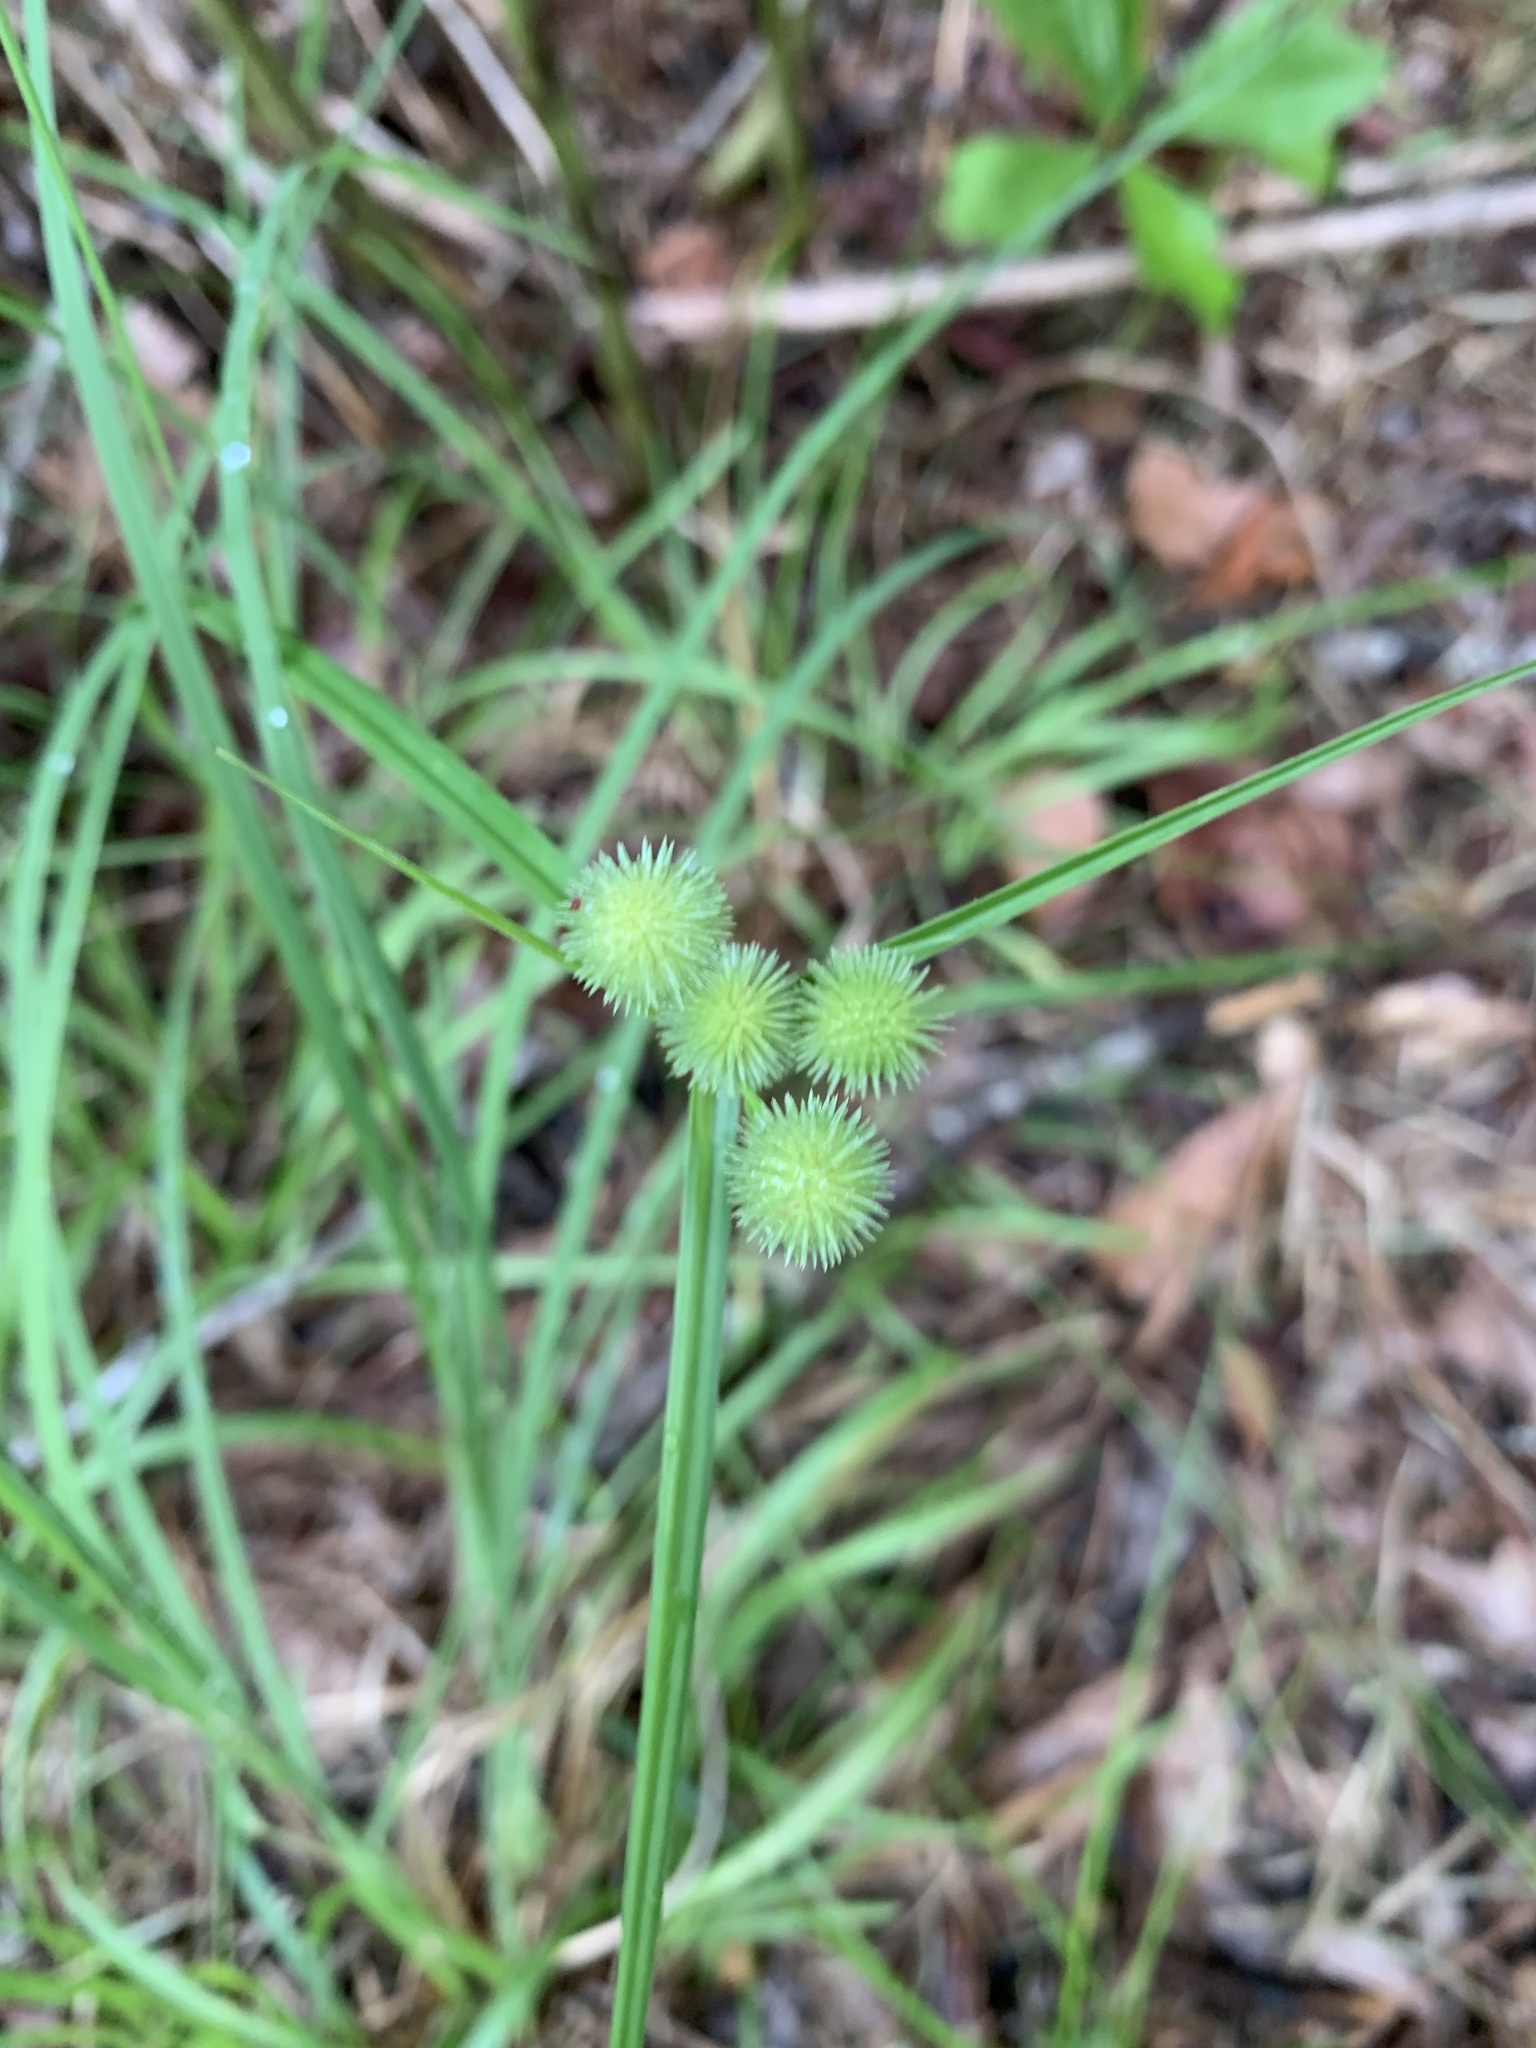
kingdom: Plantae
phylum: Tracheophyta
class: Liliopsida
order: Poales
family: Cyperaceae
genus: Cyperus
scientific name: Cyperus echinatus
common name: Teasel sedge
